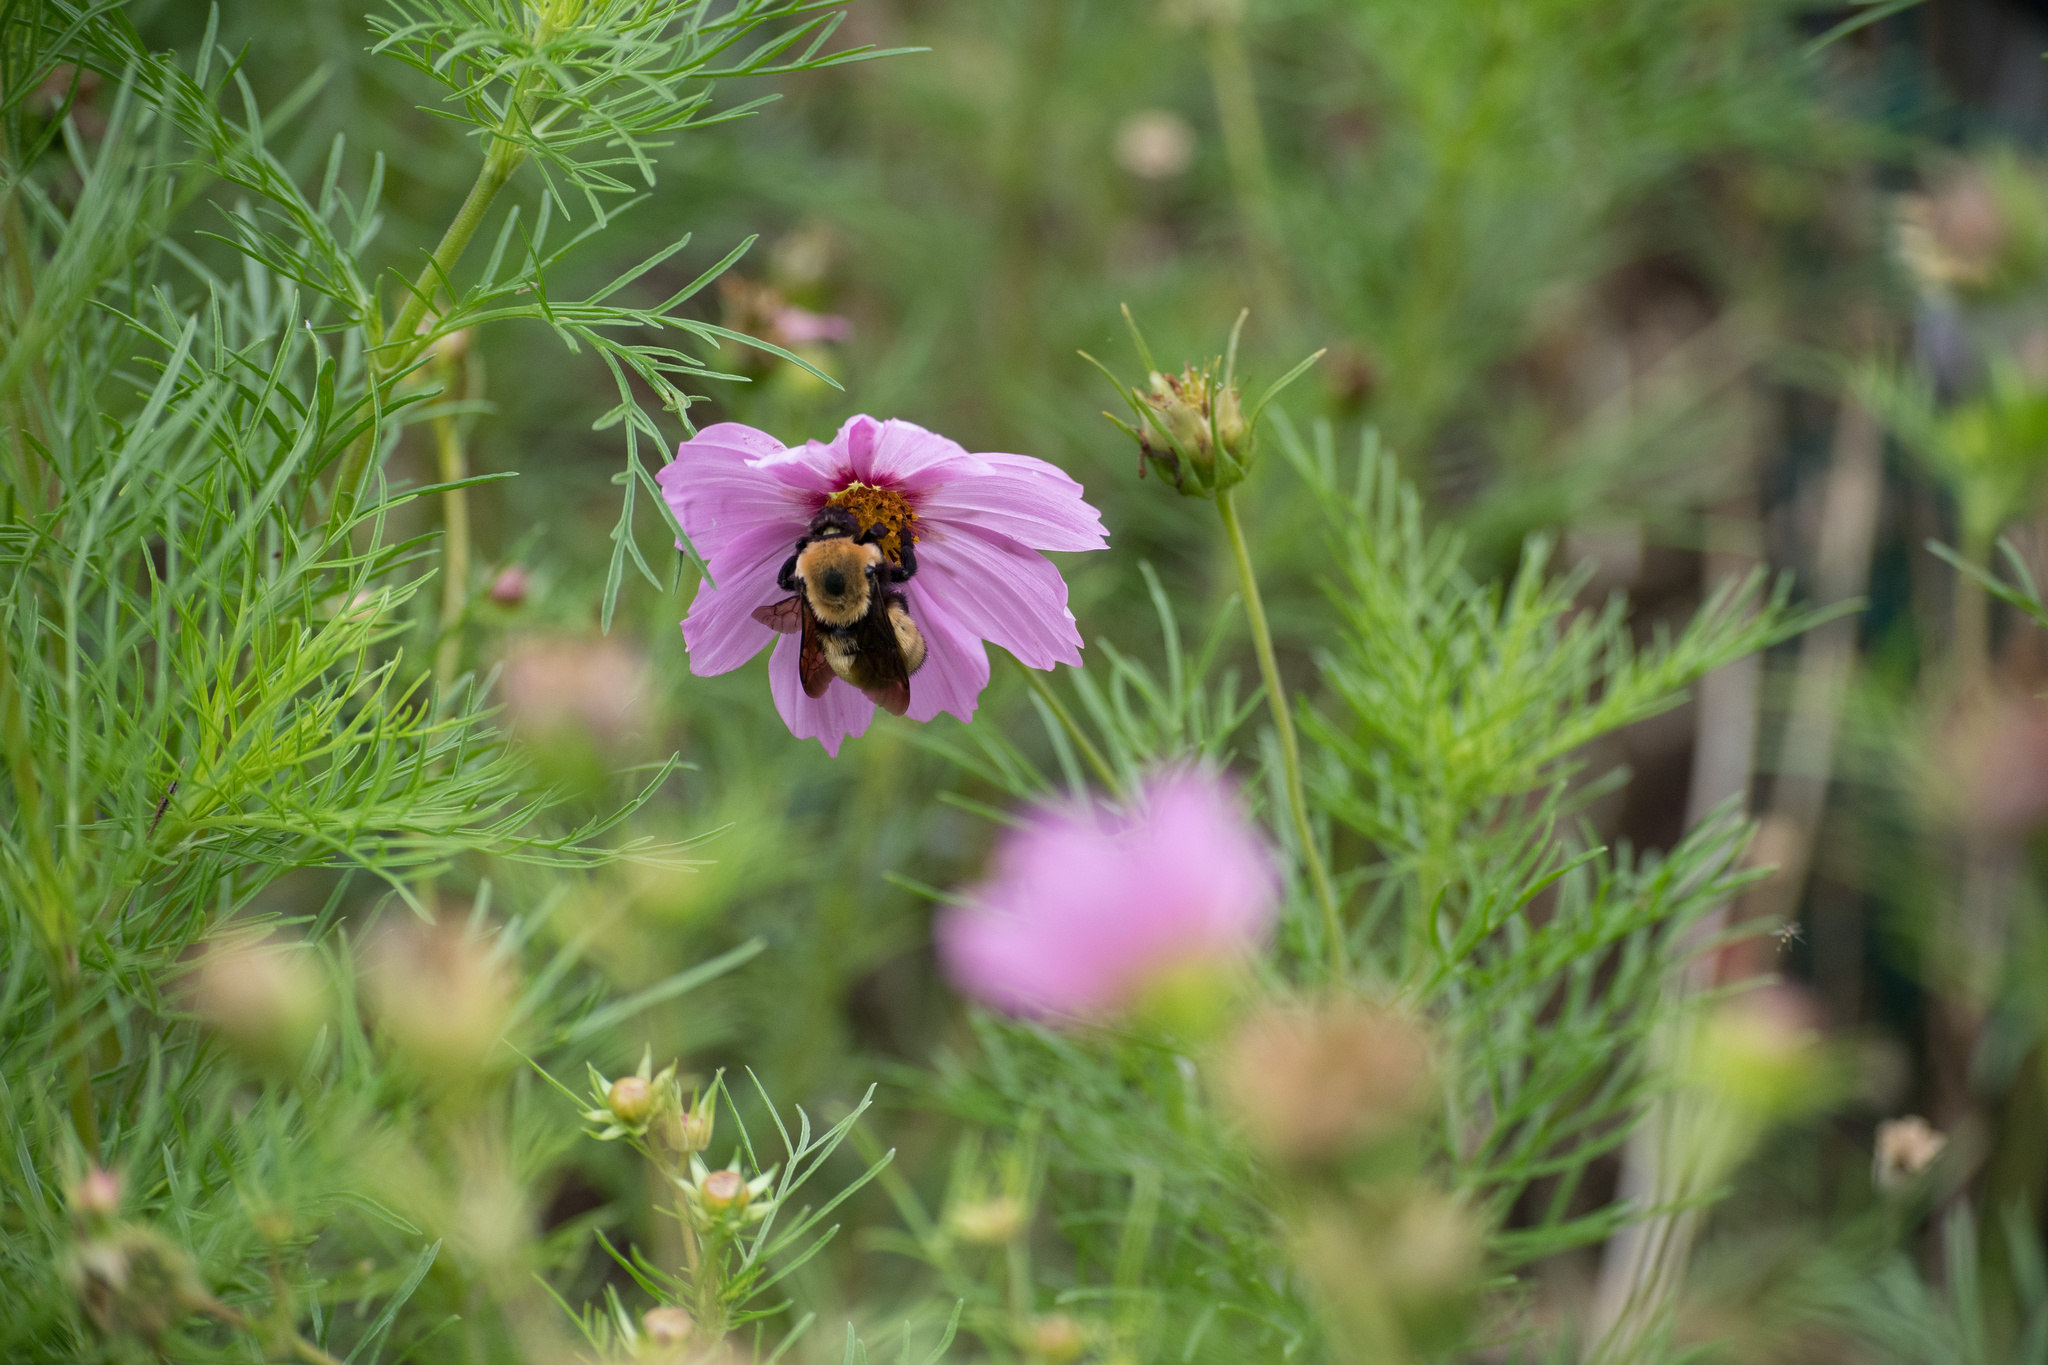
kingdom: Animalia
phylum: Arthropoda
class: Insecta
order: Hymenoptera
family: Apidae
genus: Bombus
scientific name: Bombus nevadensis
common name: Nevada bumble bee
